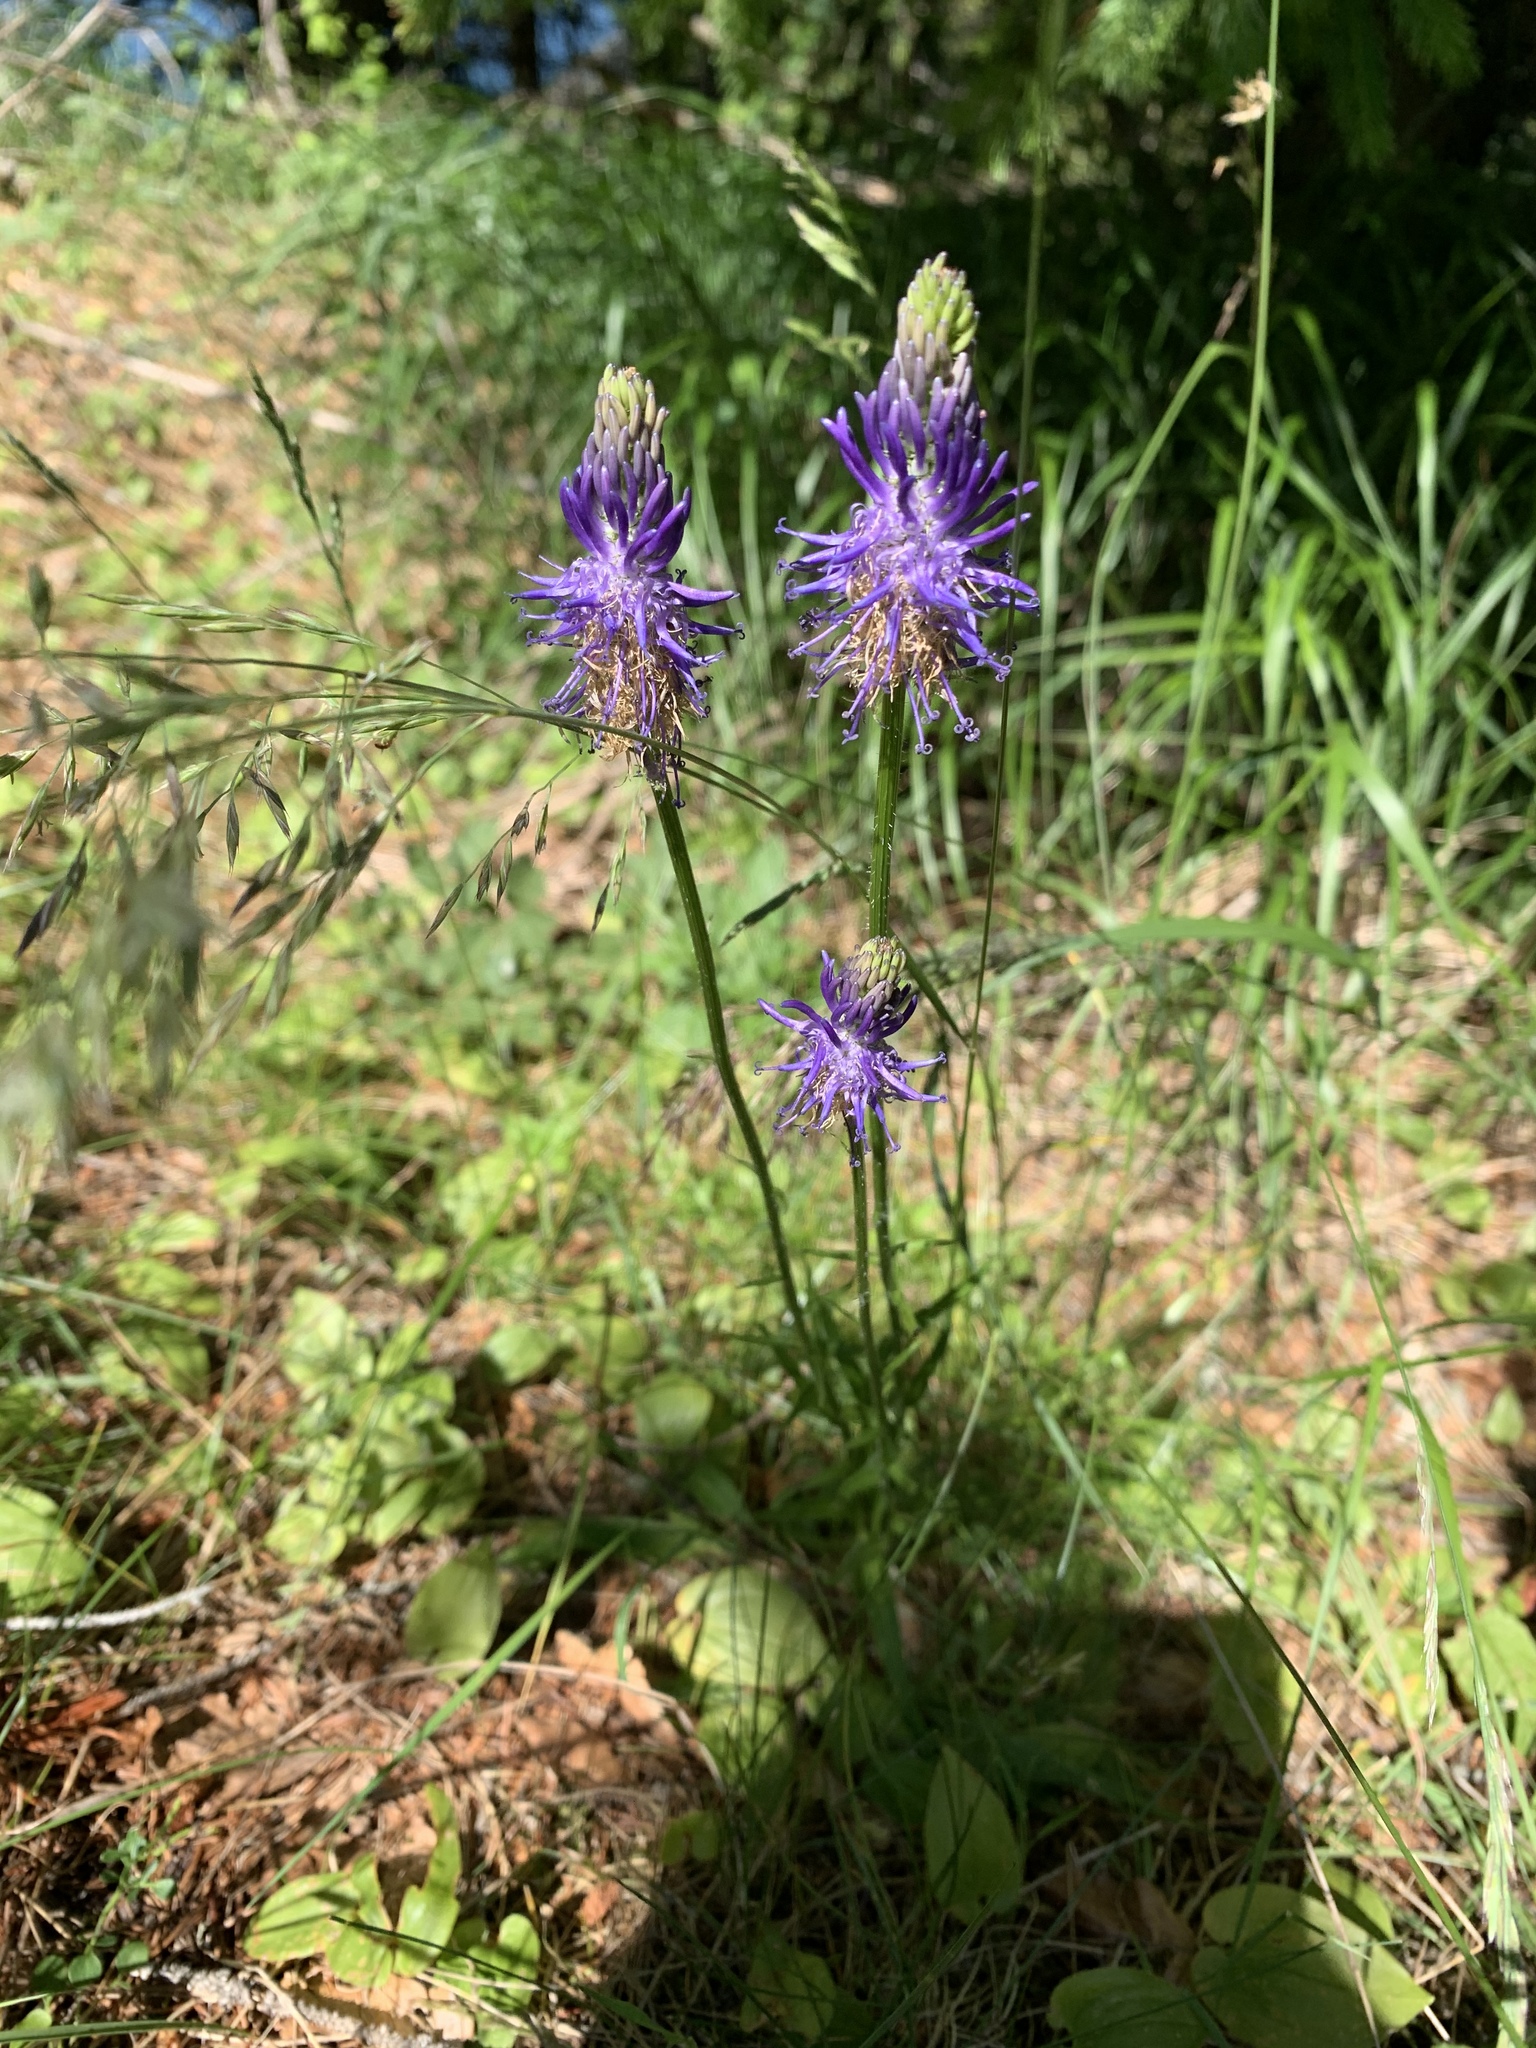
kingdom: Plantae
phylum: Tracheophyta
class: Magnoliopsida
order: Asterales
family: Campanulaceae
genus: Phyteuma
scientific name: Phyteuma betonicifolium
